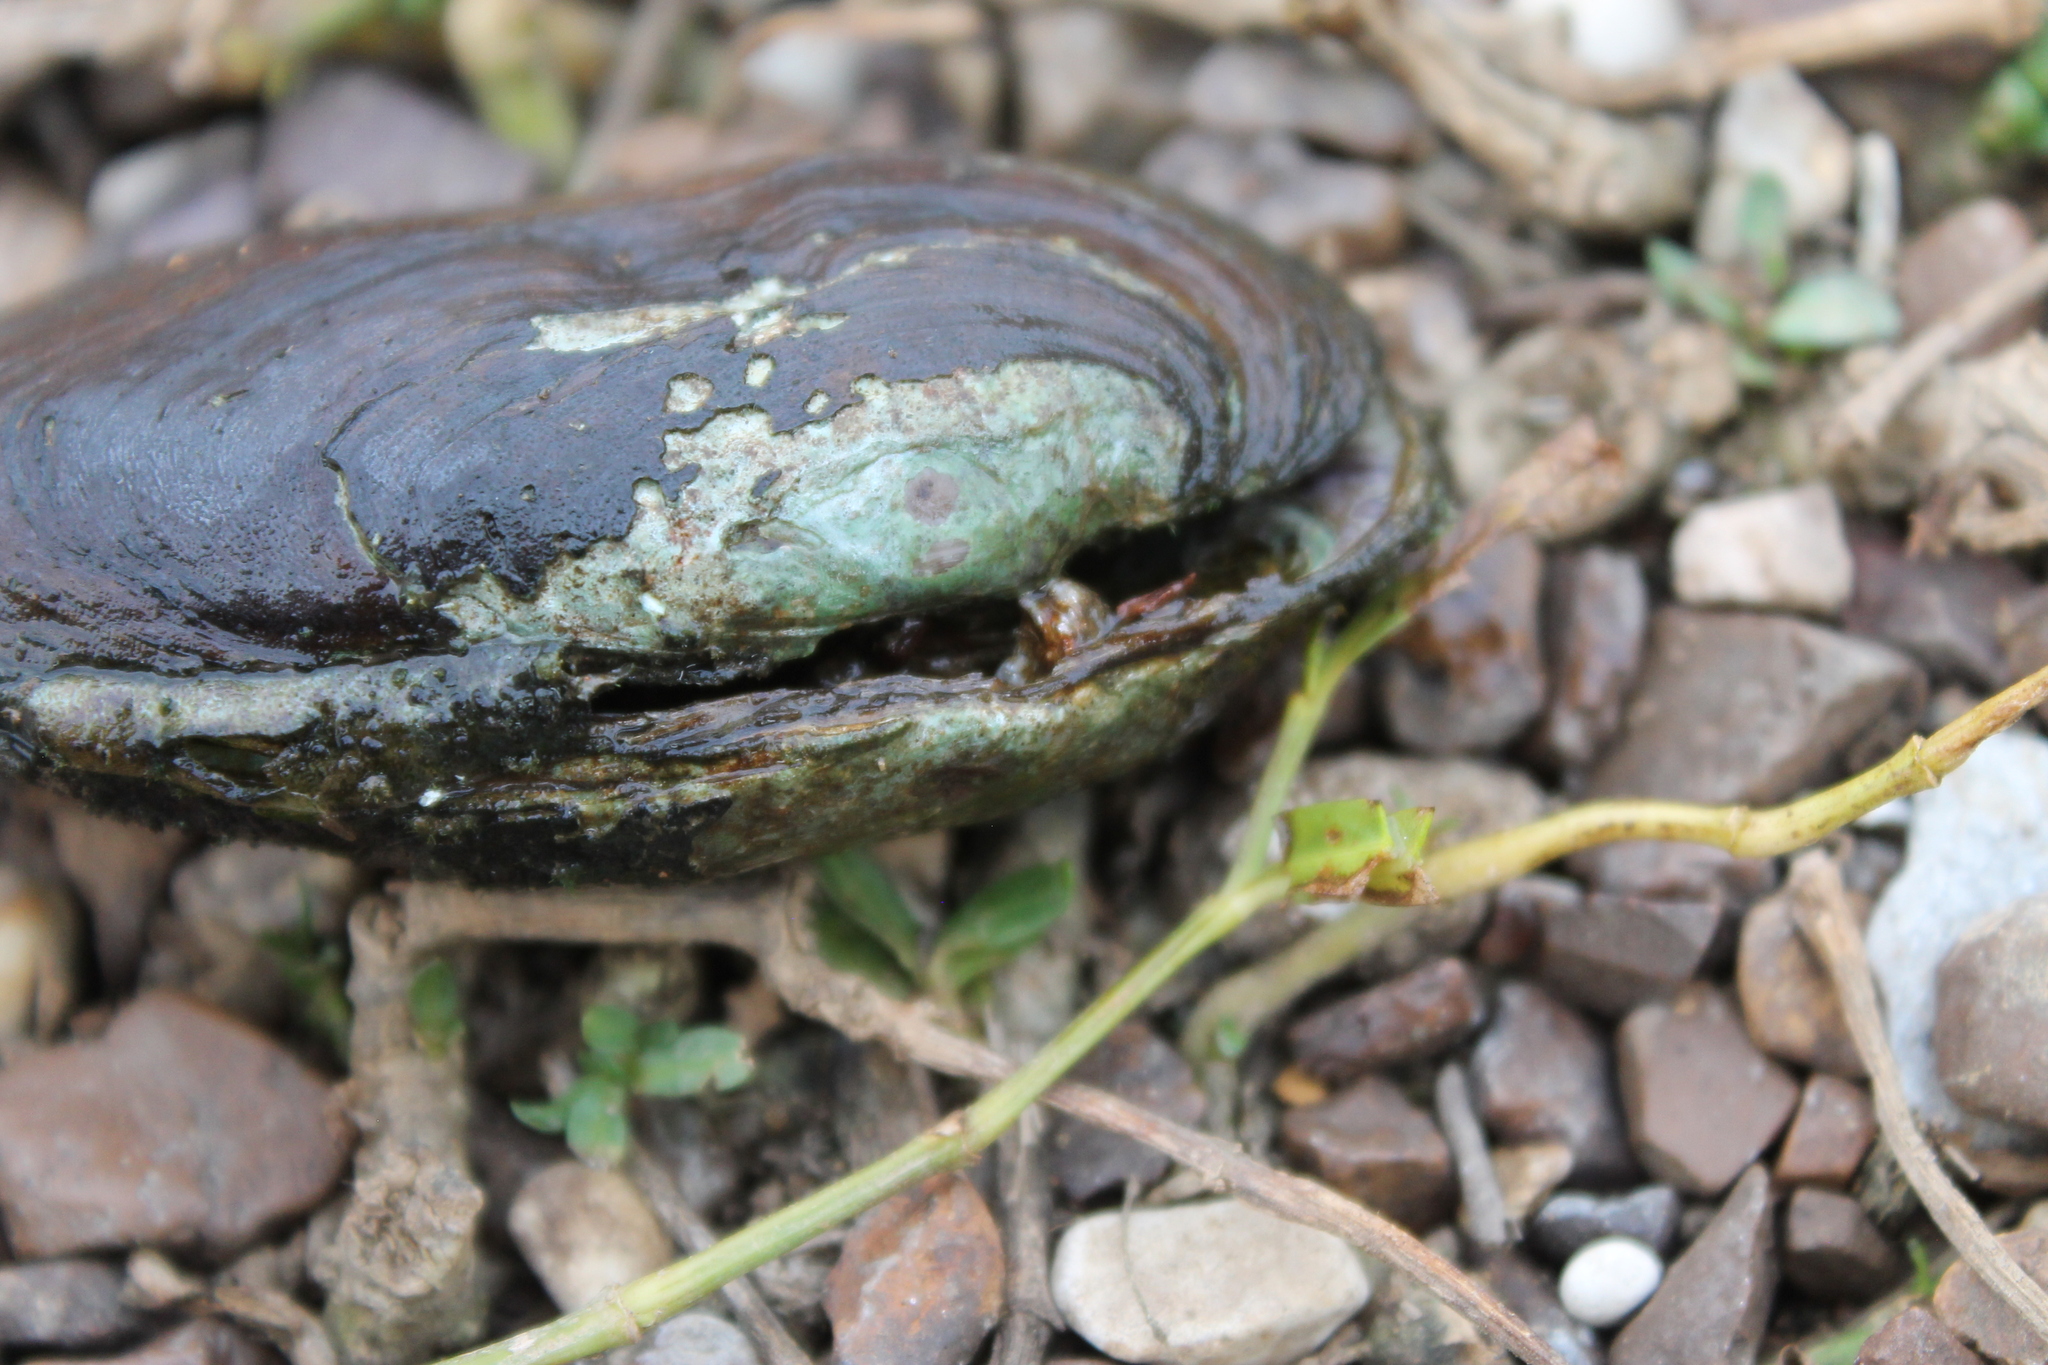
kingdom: Animalia
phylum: Mollusca
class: Bivalvia
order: Unionida
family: Unionidae
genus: Eurynia
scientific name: Eurynia dilatata
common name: Spike
